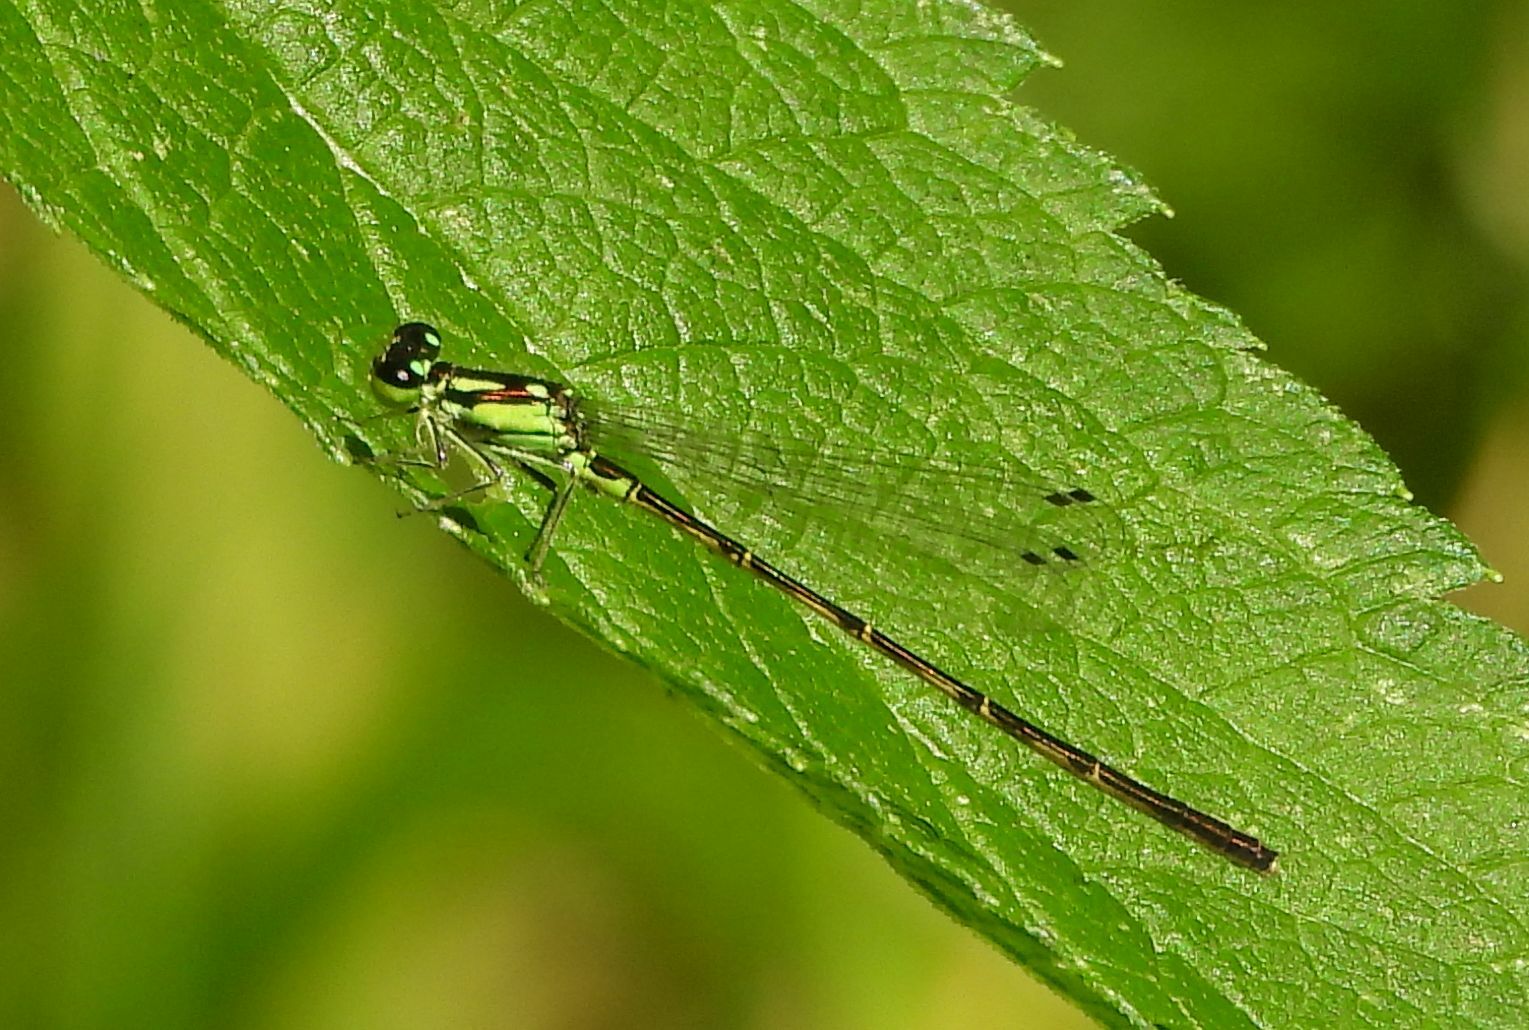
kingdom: Animalia
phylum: Arthropoda
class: Insecta
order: Odonata
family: Coenagrionidae
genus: Ischnura
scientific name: Ischnura posita
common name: Fragile forktail
